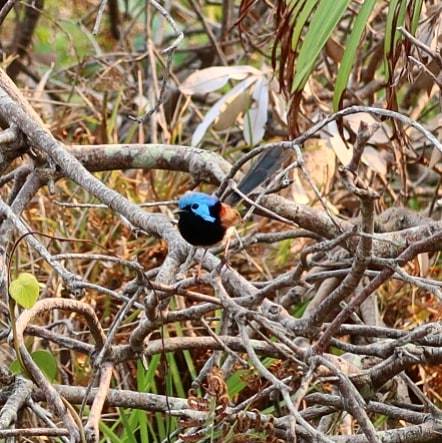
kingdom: Animalia
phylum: Chordata
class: Aves
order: Passeriformes
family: Maluridae
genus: Malurus
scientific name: Malurus lamberti
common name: Variegated fairywren
